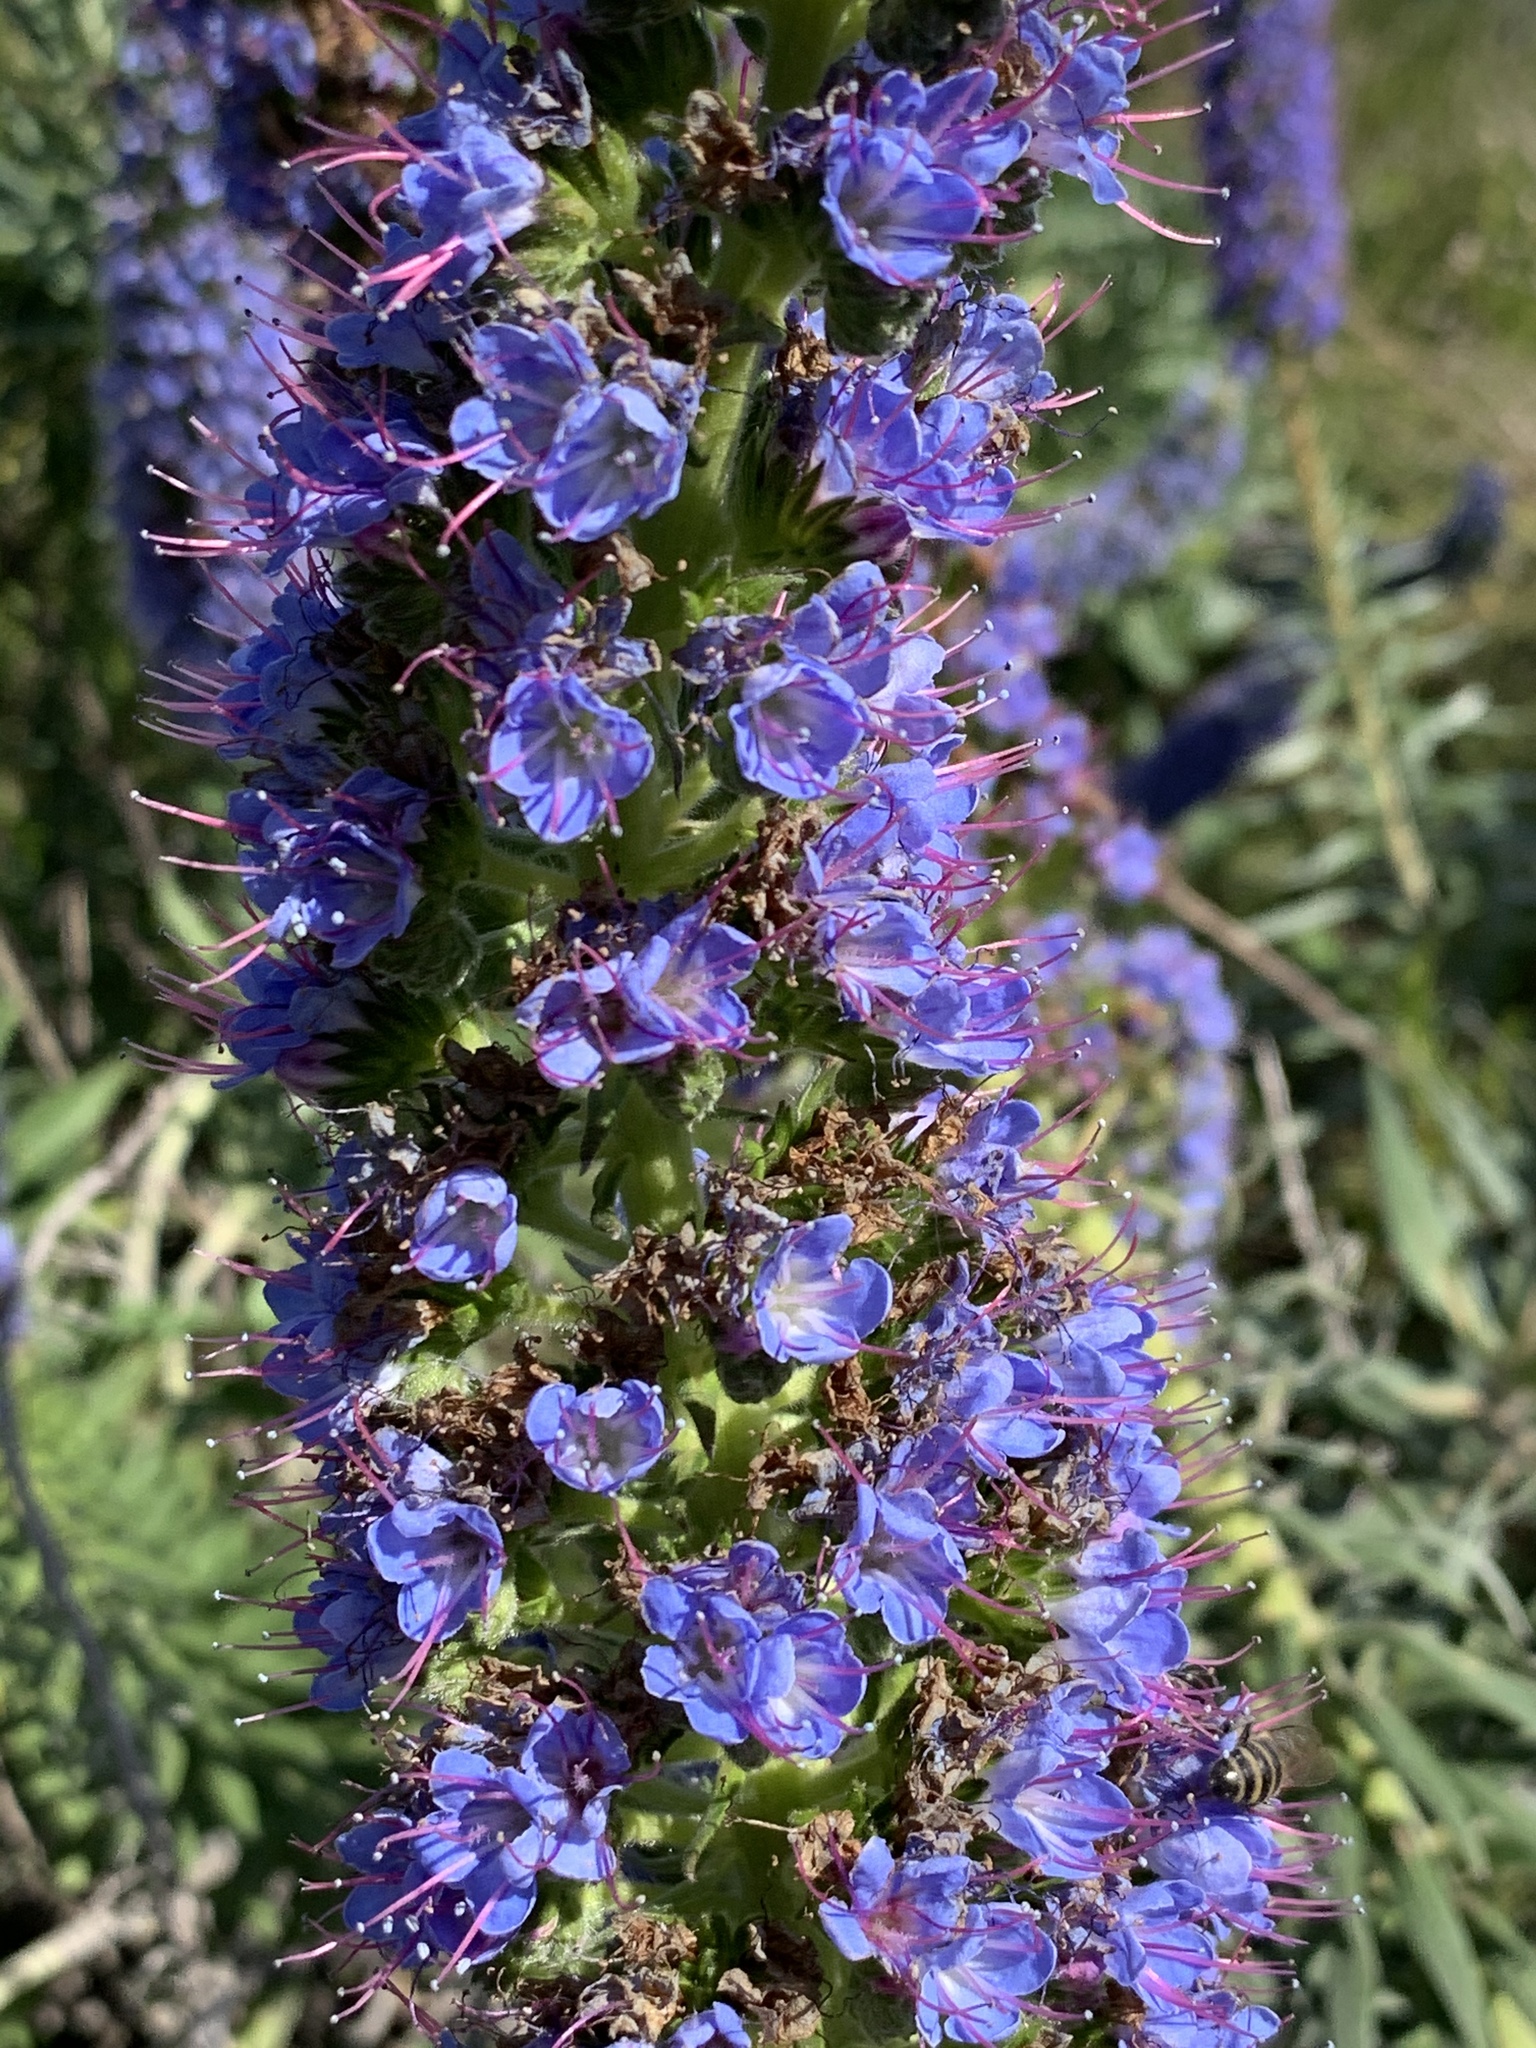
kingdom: Plantae
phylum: Tracheophyta
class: Magnoliopsida
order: Boraginales
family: Boraginaceae
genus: Echium
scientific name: Echium candicans
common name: Pride of madeira
